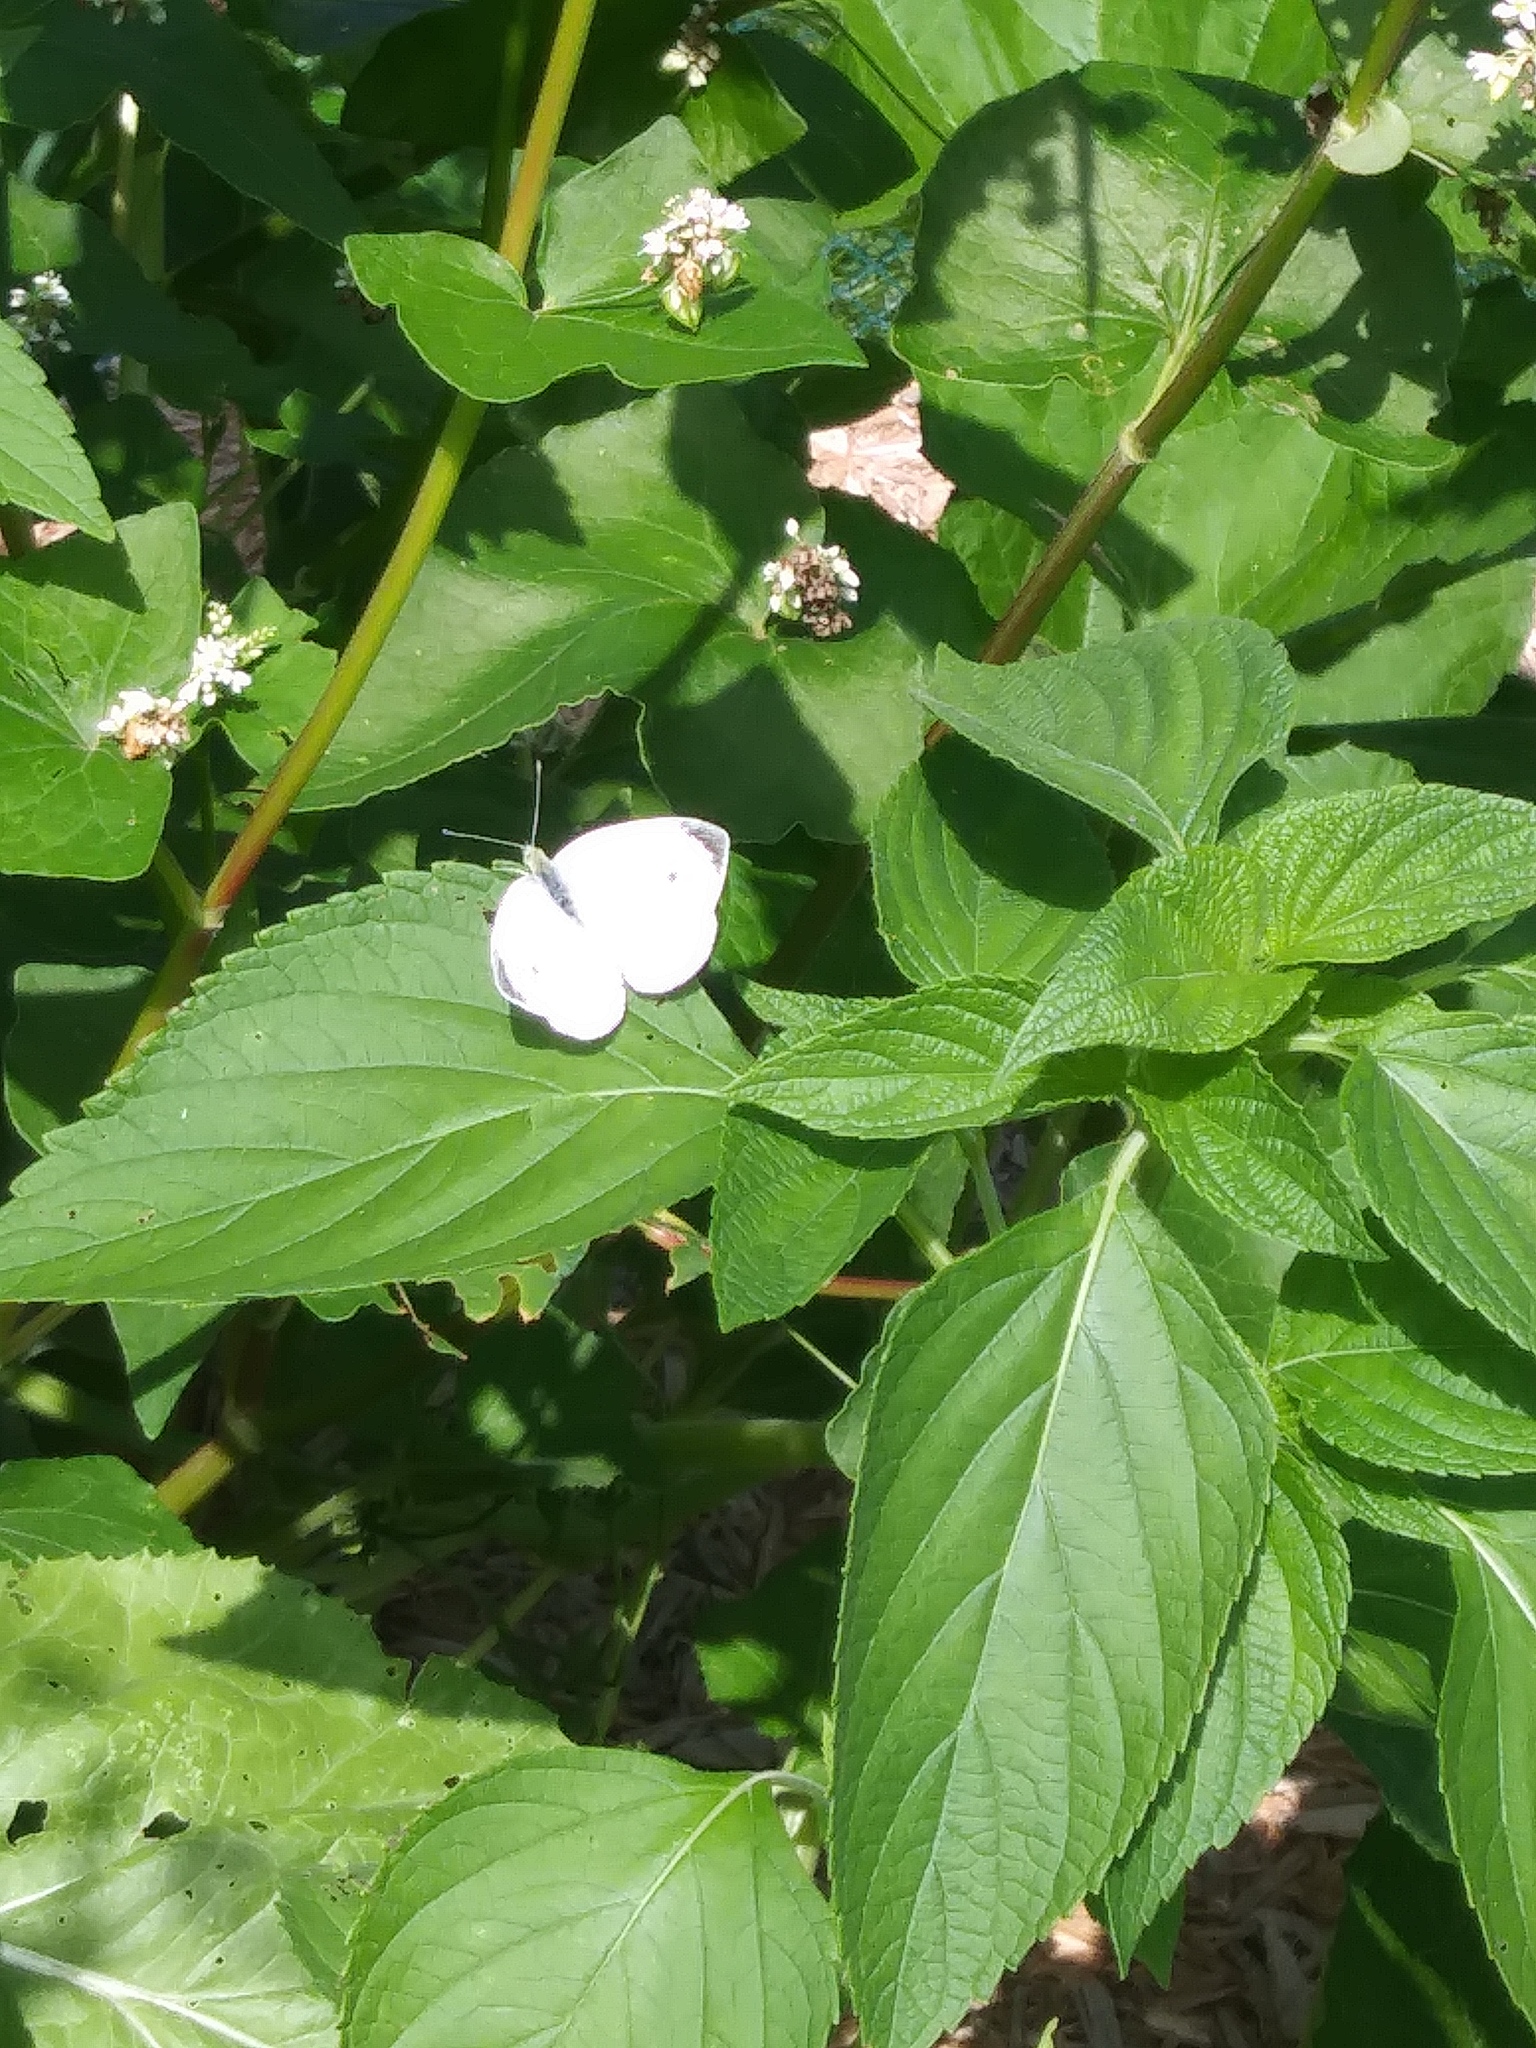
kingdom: Animalia
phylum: Arthropoda
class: Insecta
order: Lepidoptera
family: Pieridae
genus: Pieris
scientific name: Pieris rapae
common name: Small white
